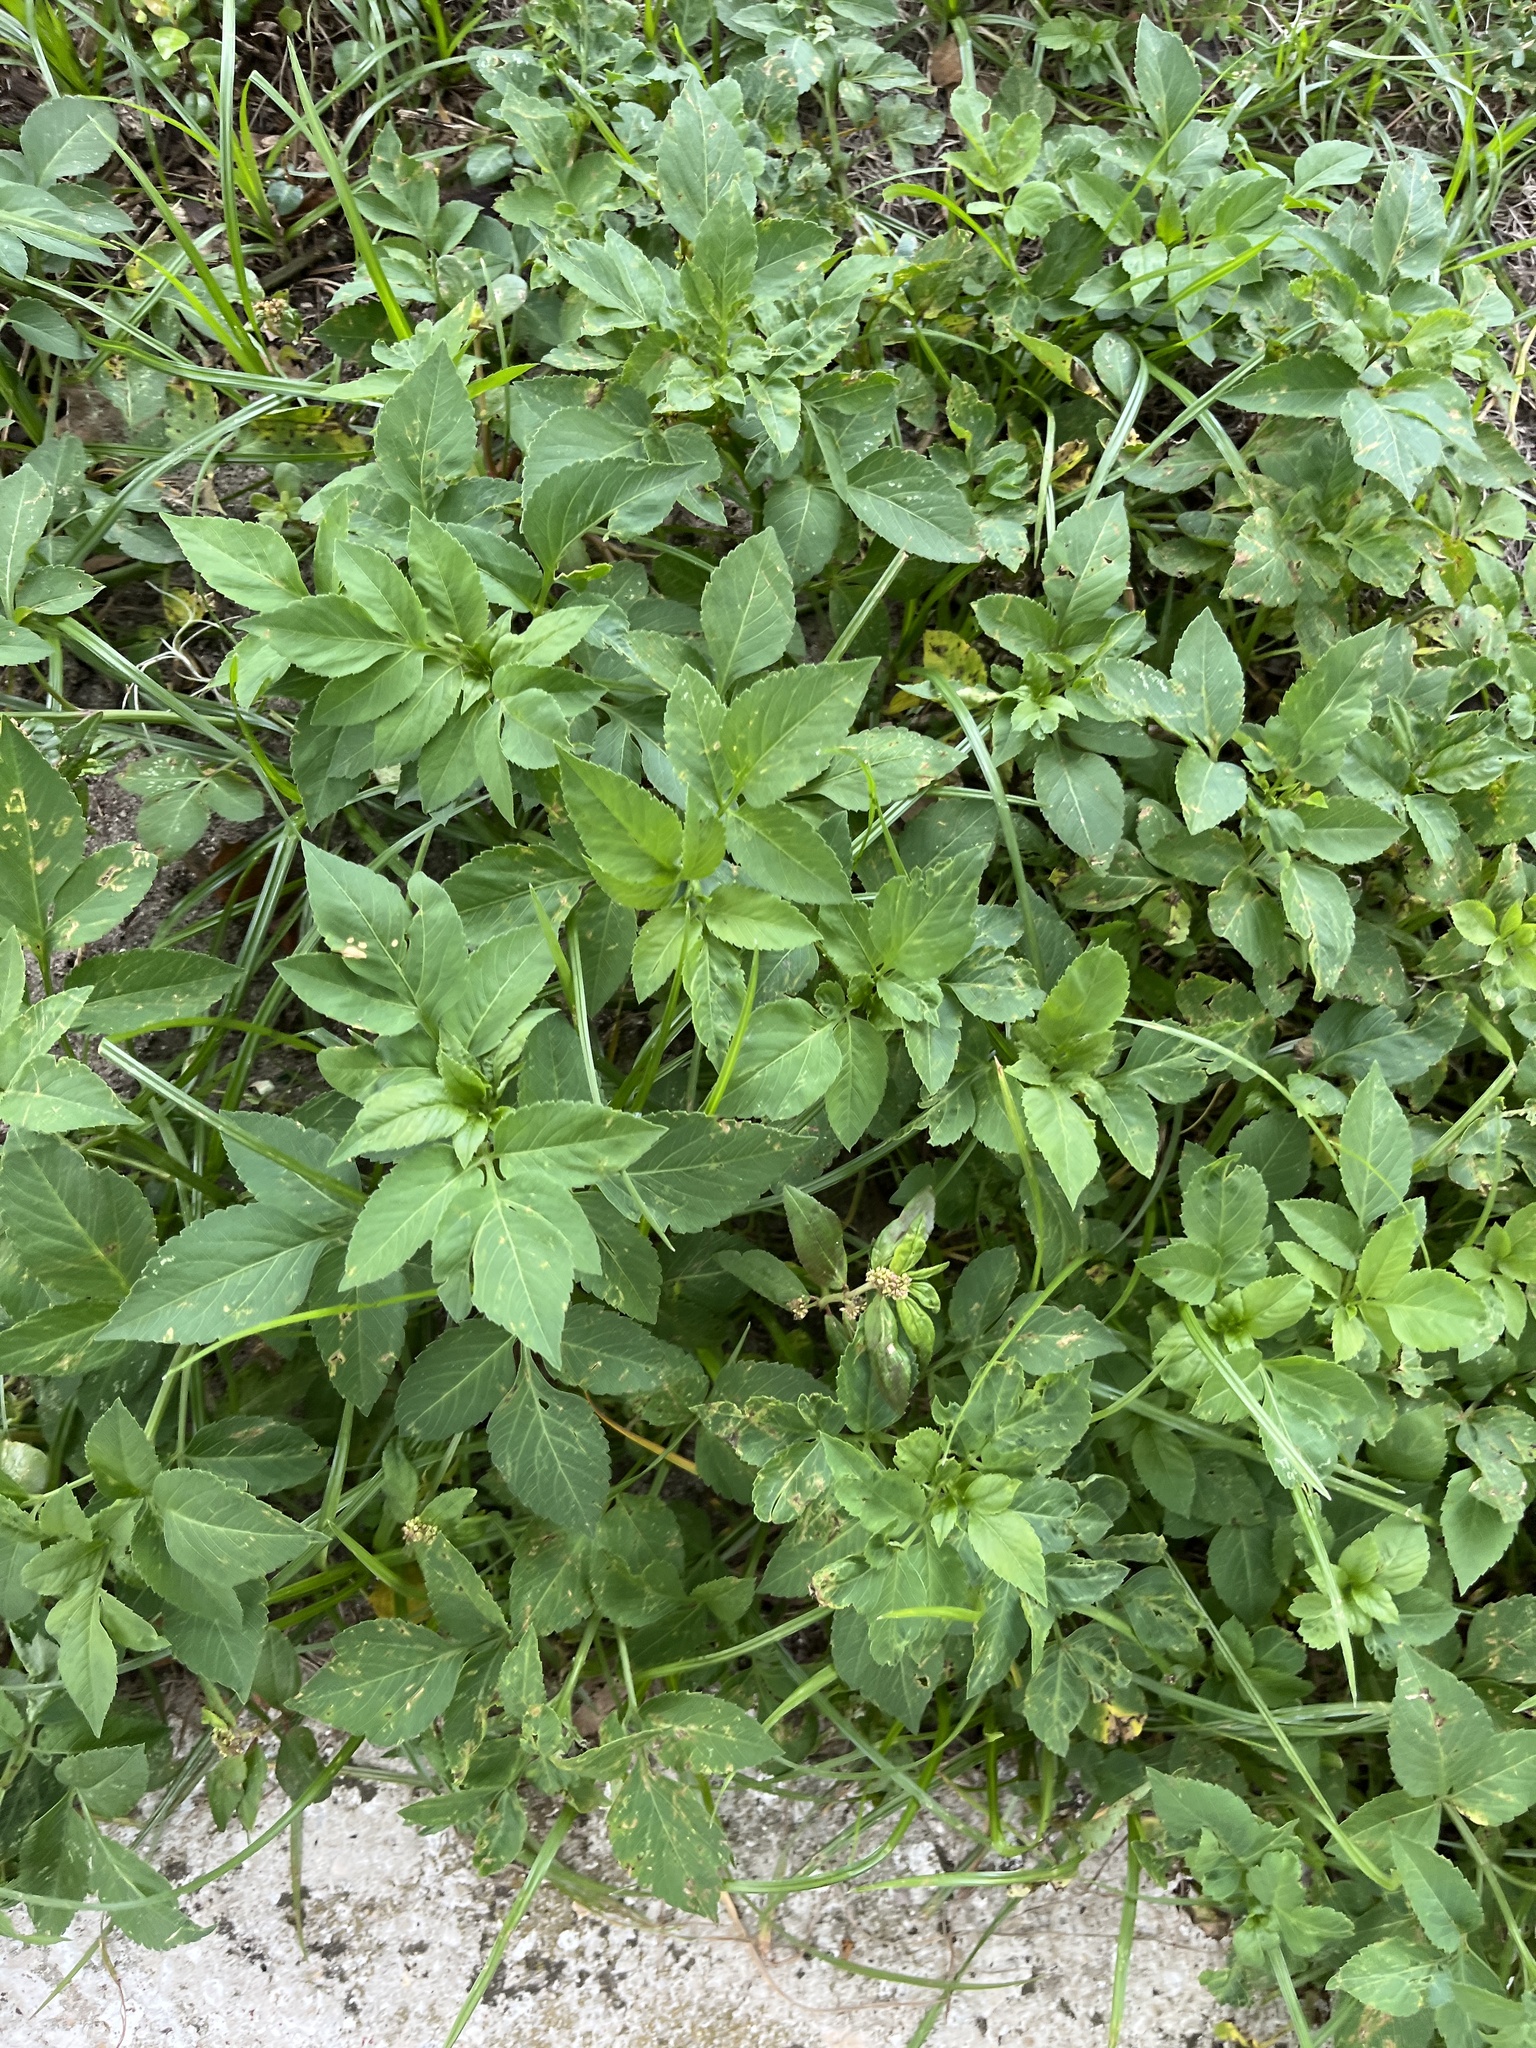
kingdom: Plantae
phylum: Tracheophyta
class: Magnoliopsida
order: Asterales
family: Asteraceae
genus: Bidens
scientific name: Bidens alba
